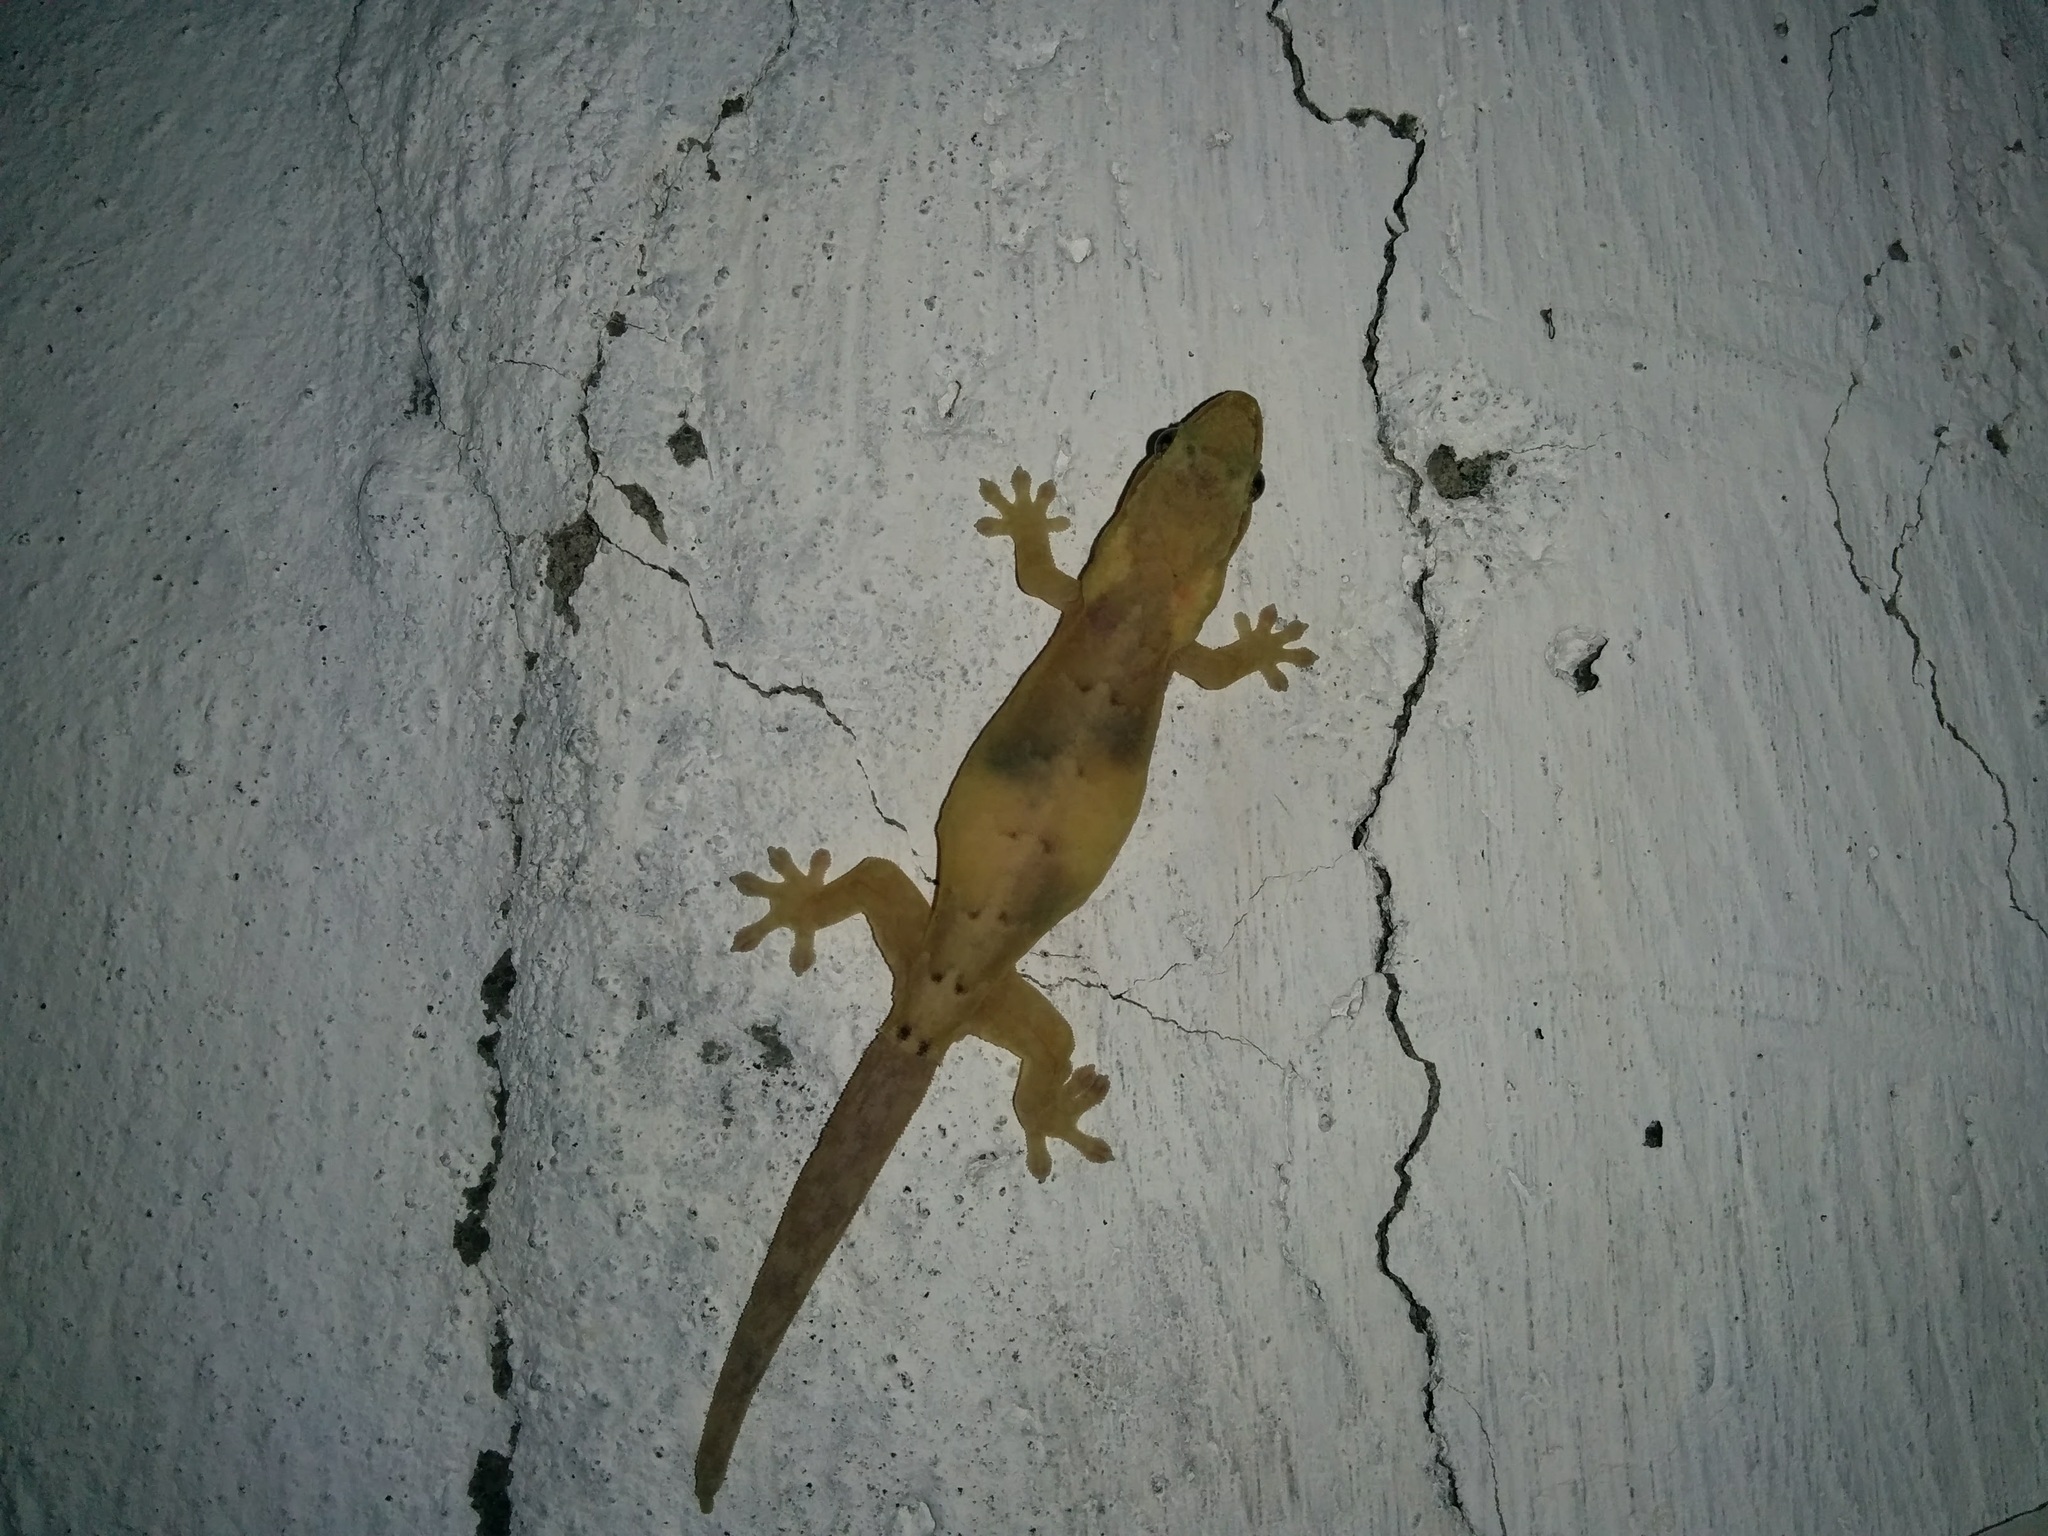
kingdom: Animalia
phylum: Chordata
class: Squamata
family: Gekkonidae
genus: Lepidodactylus
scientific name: Lepidodactylus lugubris
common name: Mourning gecko
